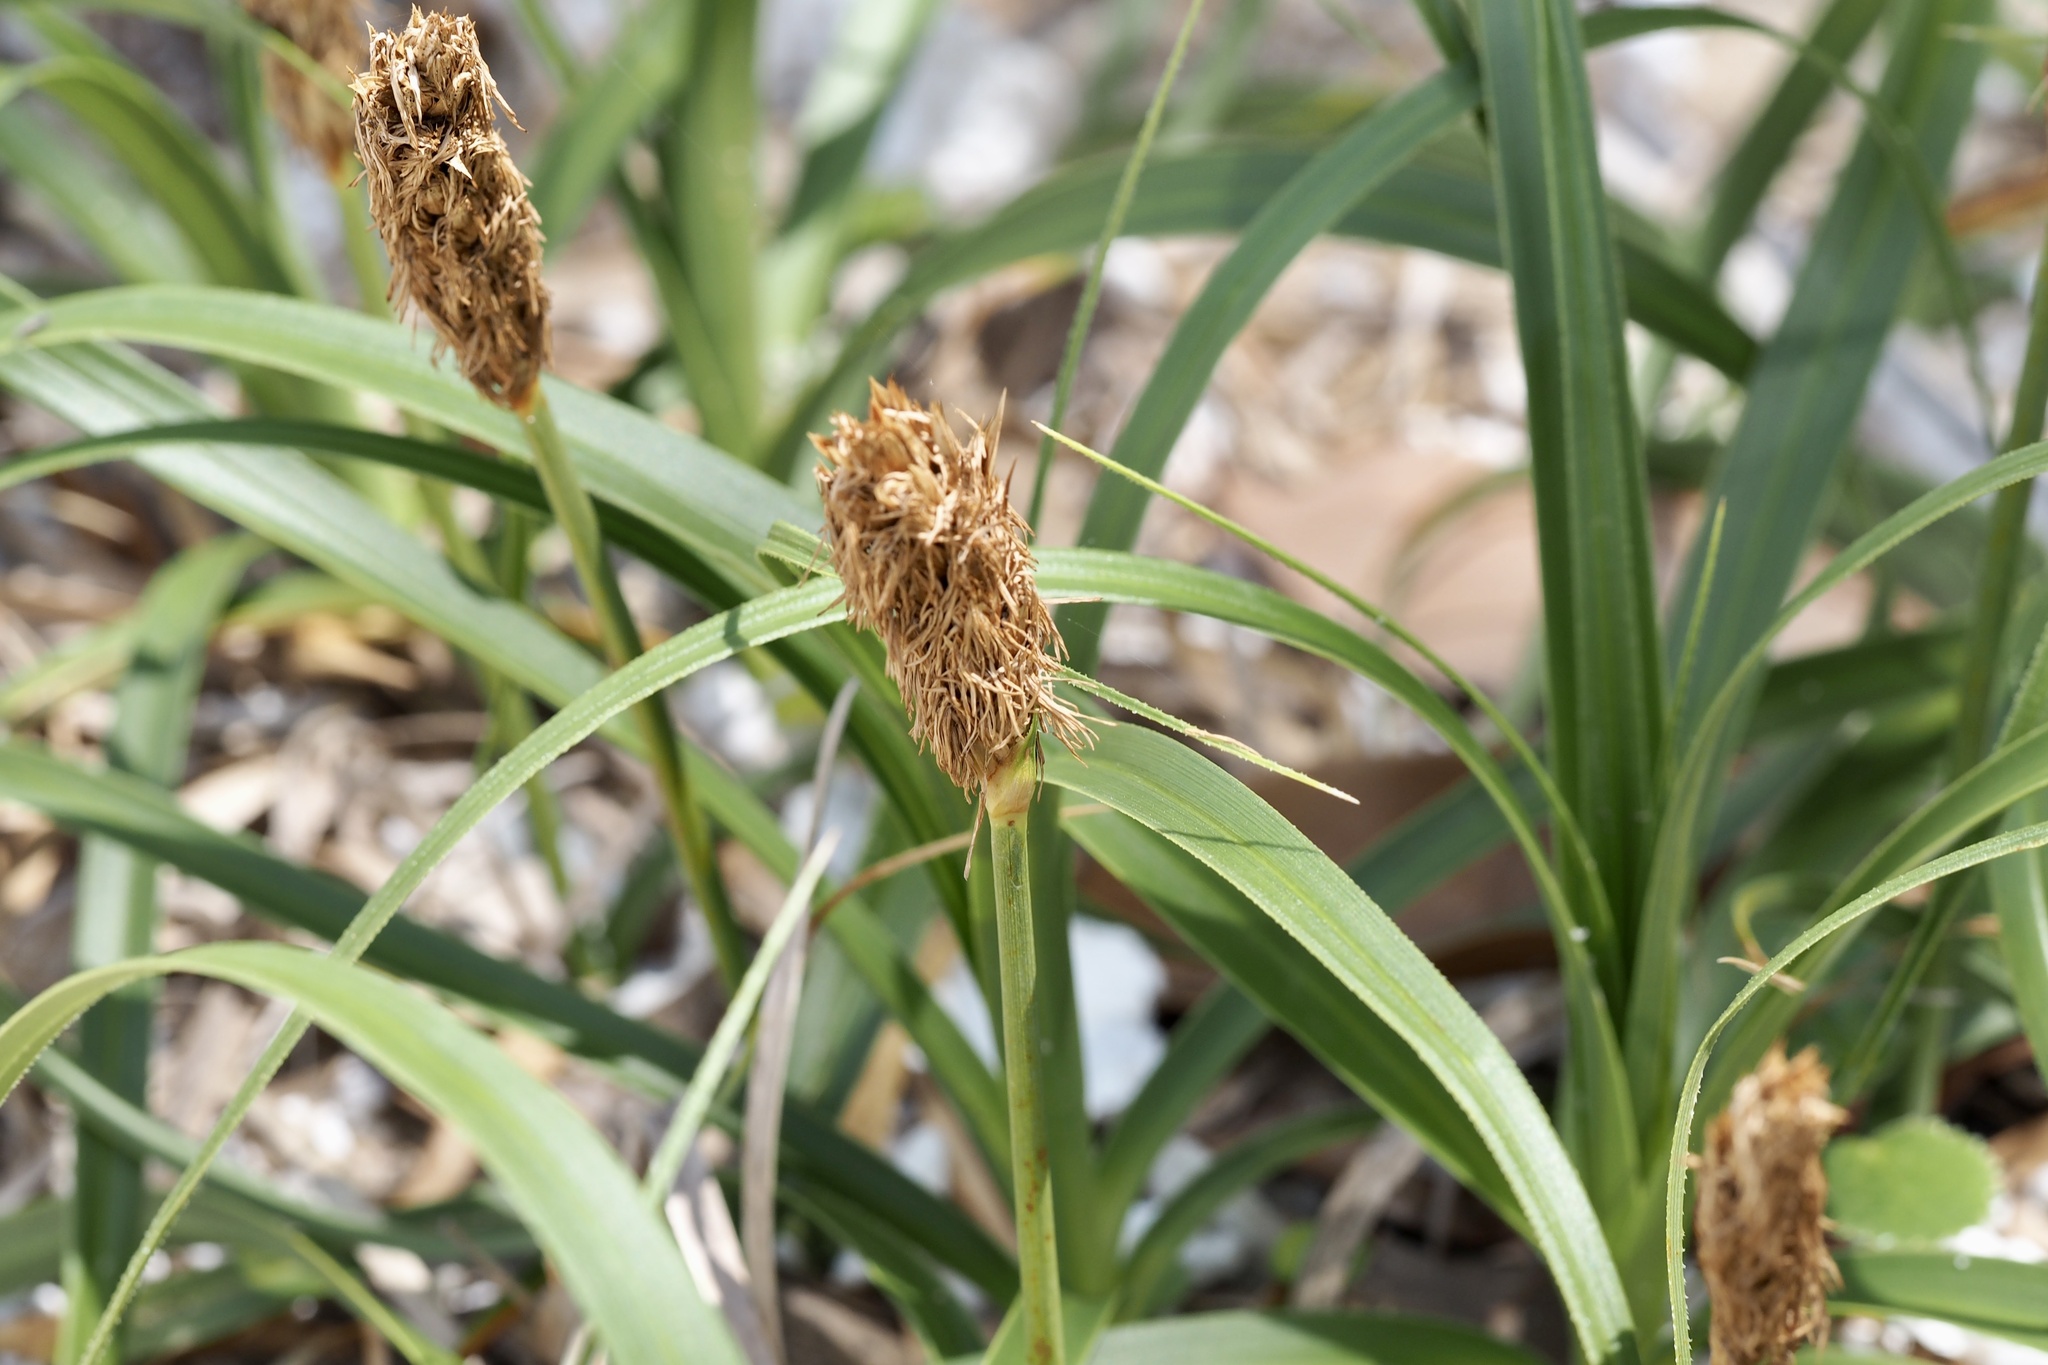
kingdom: Plantae
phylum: Tracheophyta
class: Liliopsida
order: Poales
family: Cyperaceae
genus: Carex
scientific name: Carex kobomugi
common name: Japanese sedge
